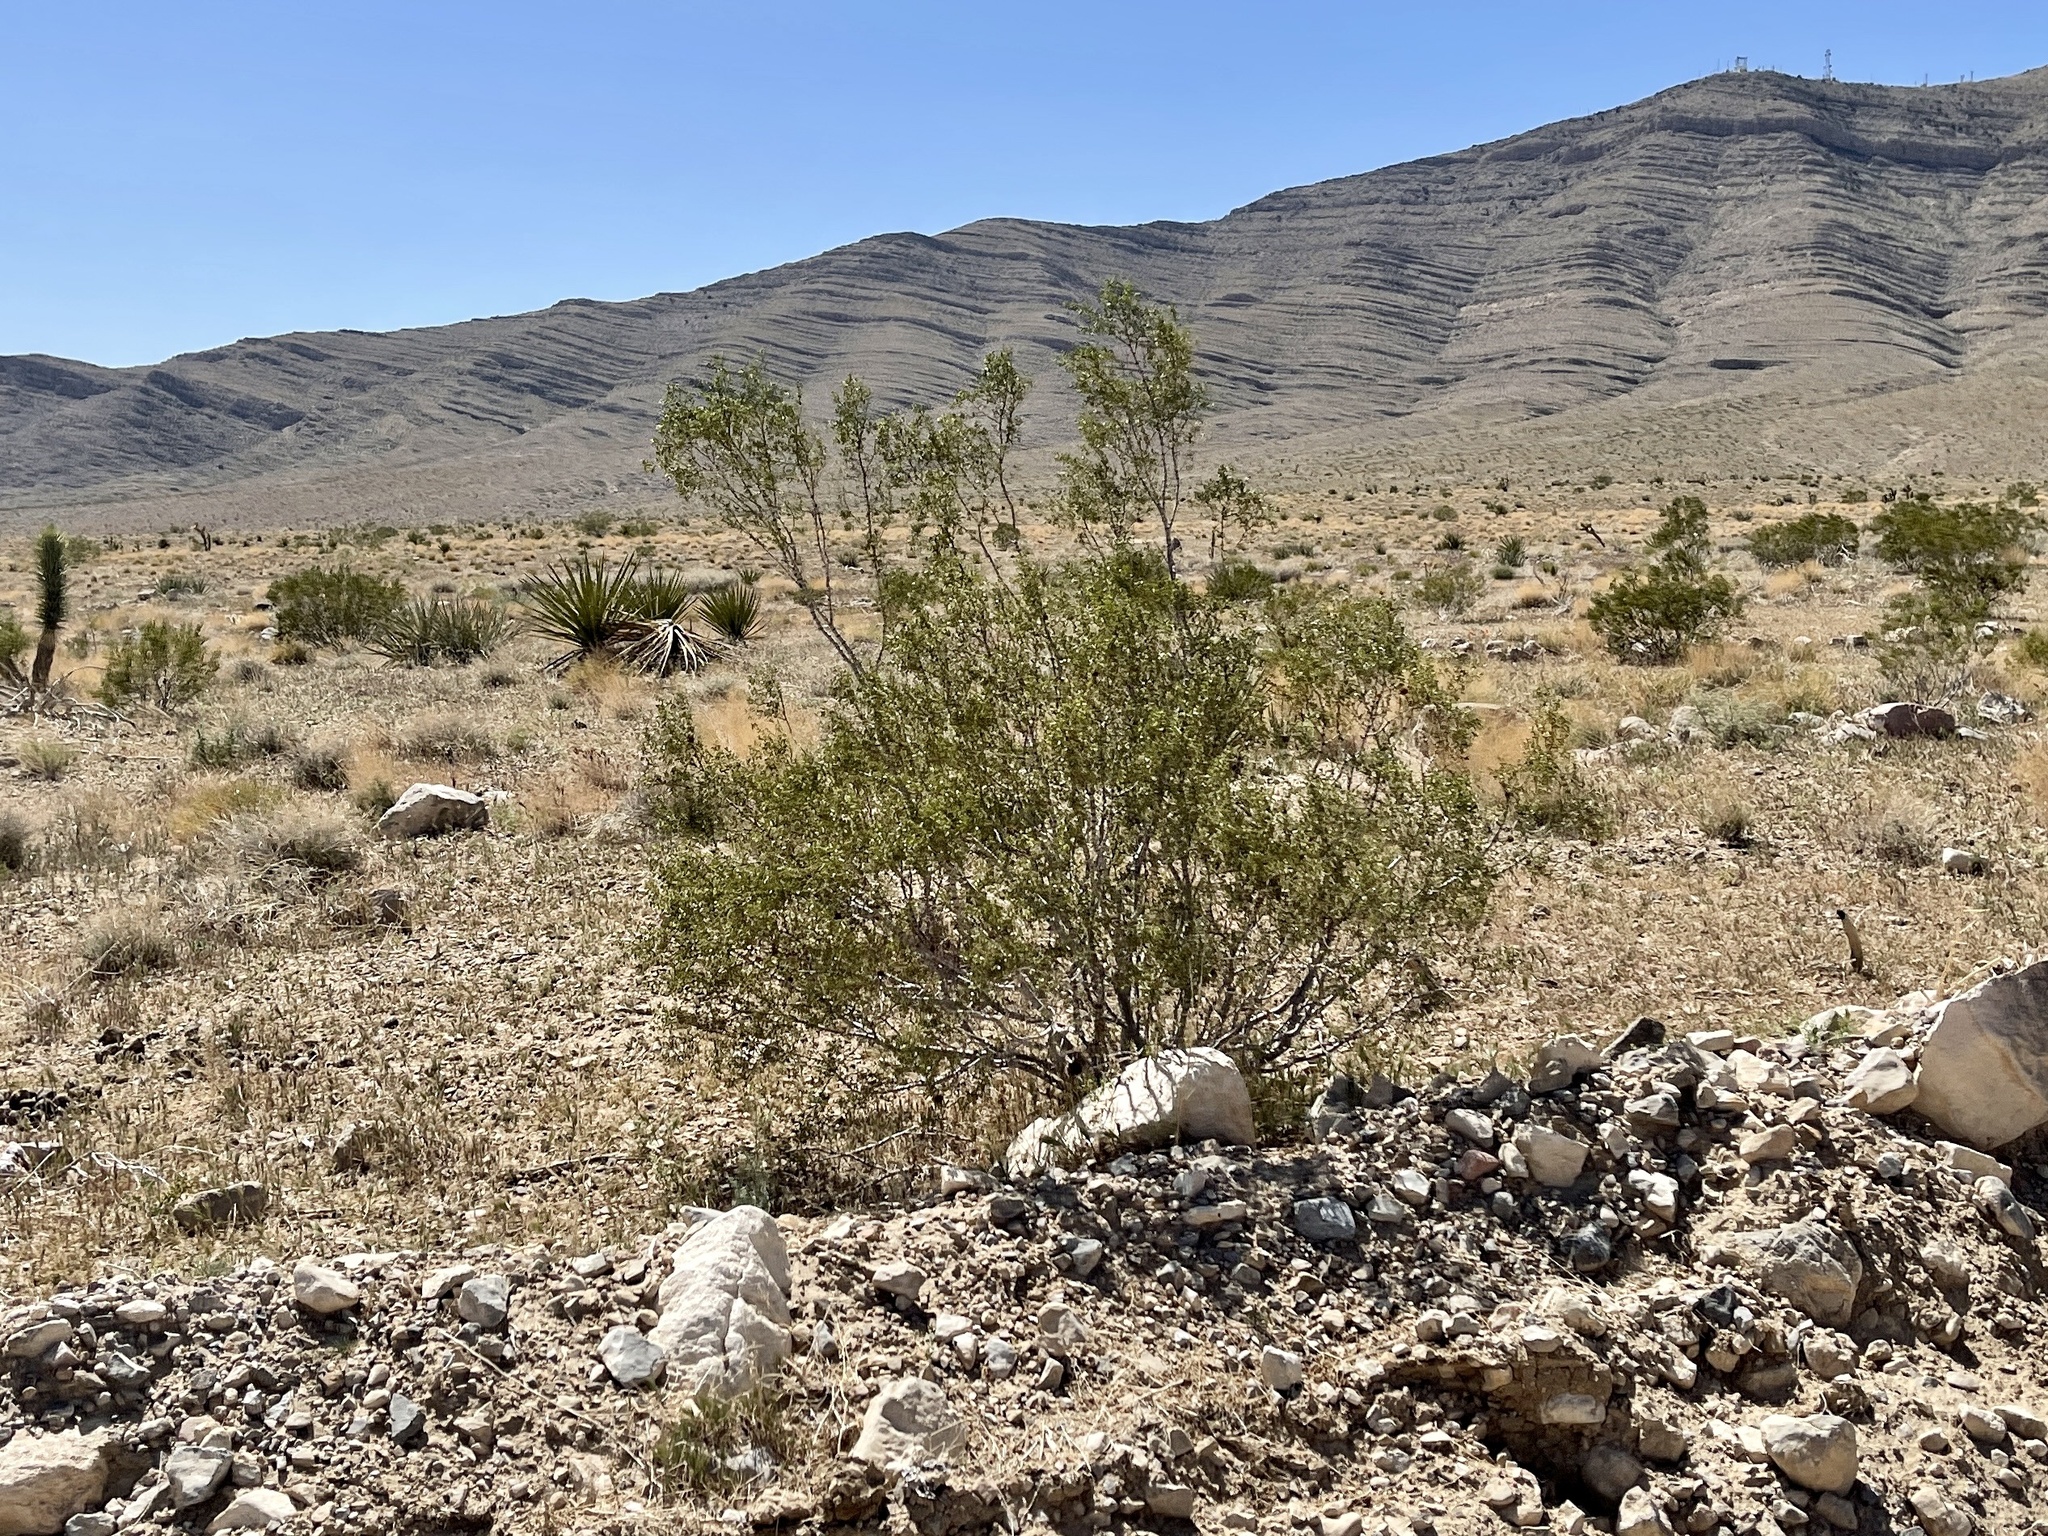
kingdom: Plantae
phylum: Tracheophyta
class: Magnoliopsida
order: Zygophyllales
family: Zygophyllaceae
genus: Larrea
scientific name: Larrea tridentata
